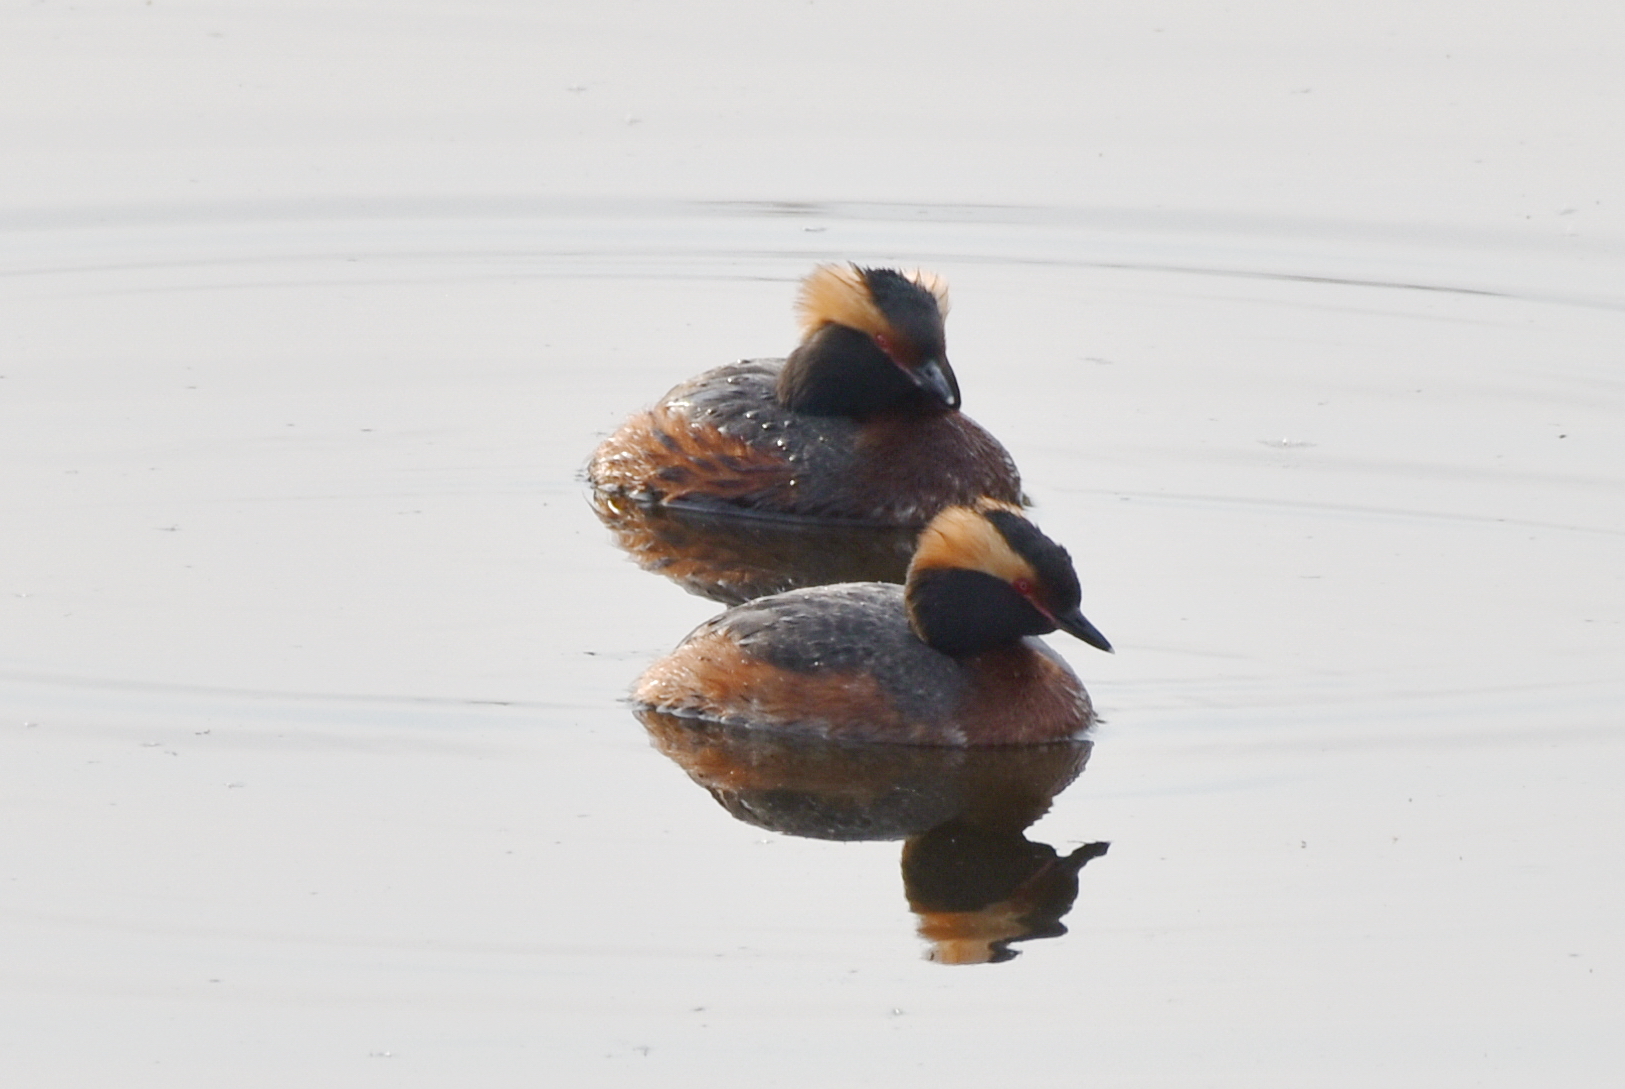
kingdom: Animalia
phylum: Chordata
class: Aves
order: Podicipediformes
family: Podicipedidae
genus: Podiceps
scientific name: Podiceps auritus
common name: Horned grebe
